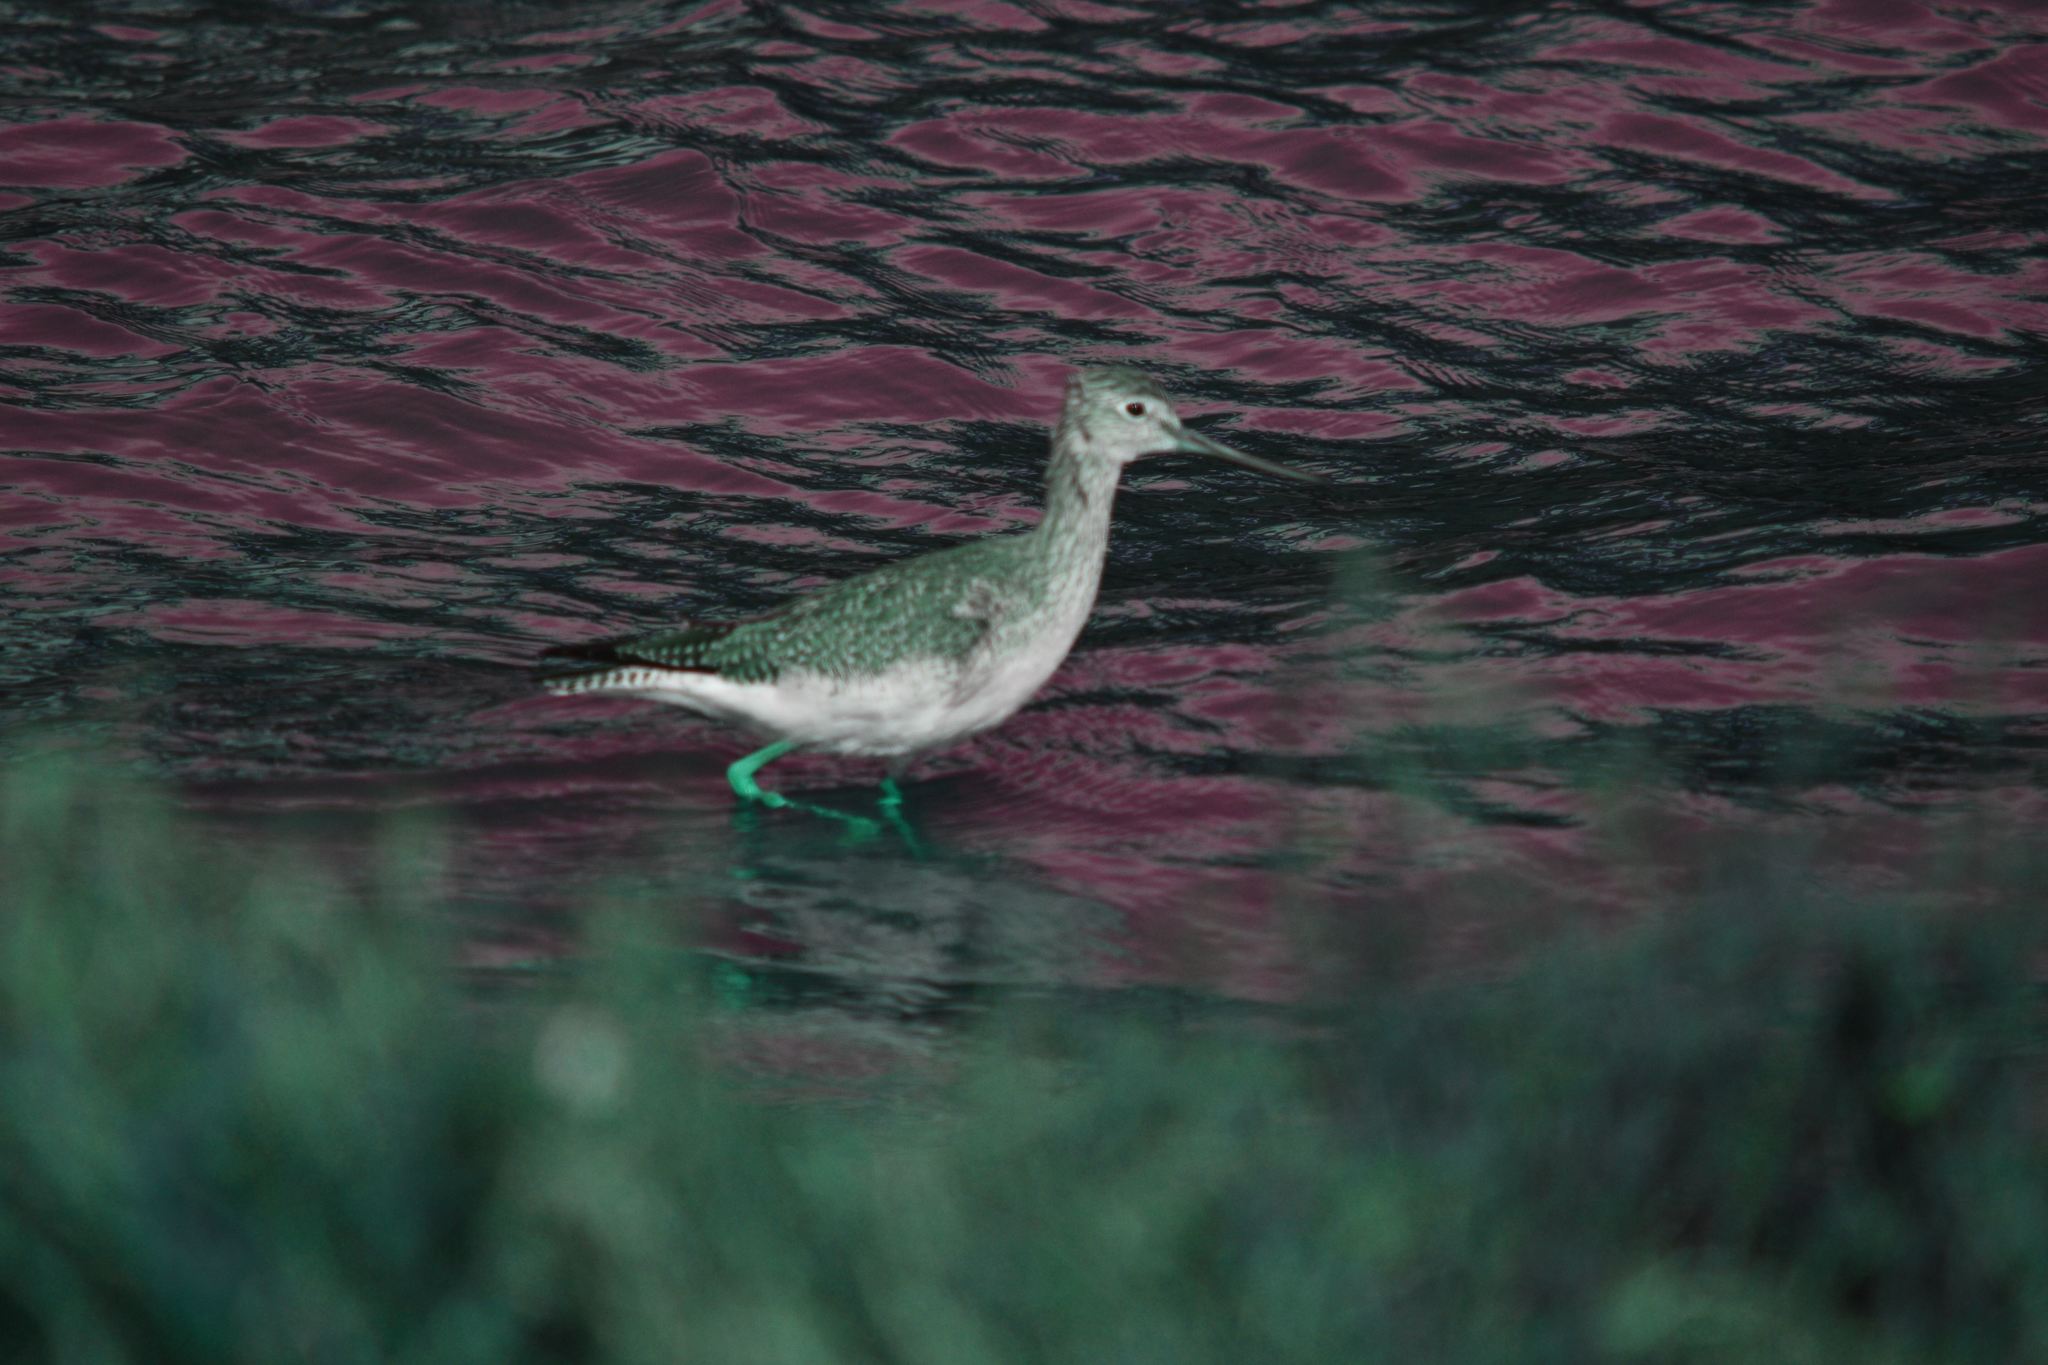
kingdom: Animalia
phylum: Chordata
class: Aves
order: Charadriiformes
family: Scolopacidae
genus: Tringa
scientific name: Tringa melanoleuca
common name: Greater yellowlegs
